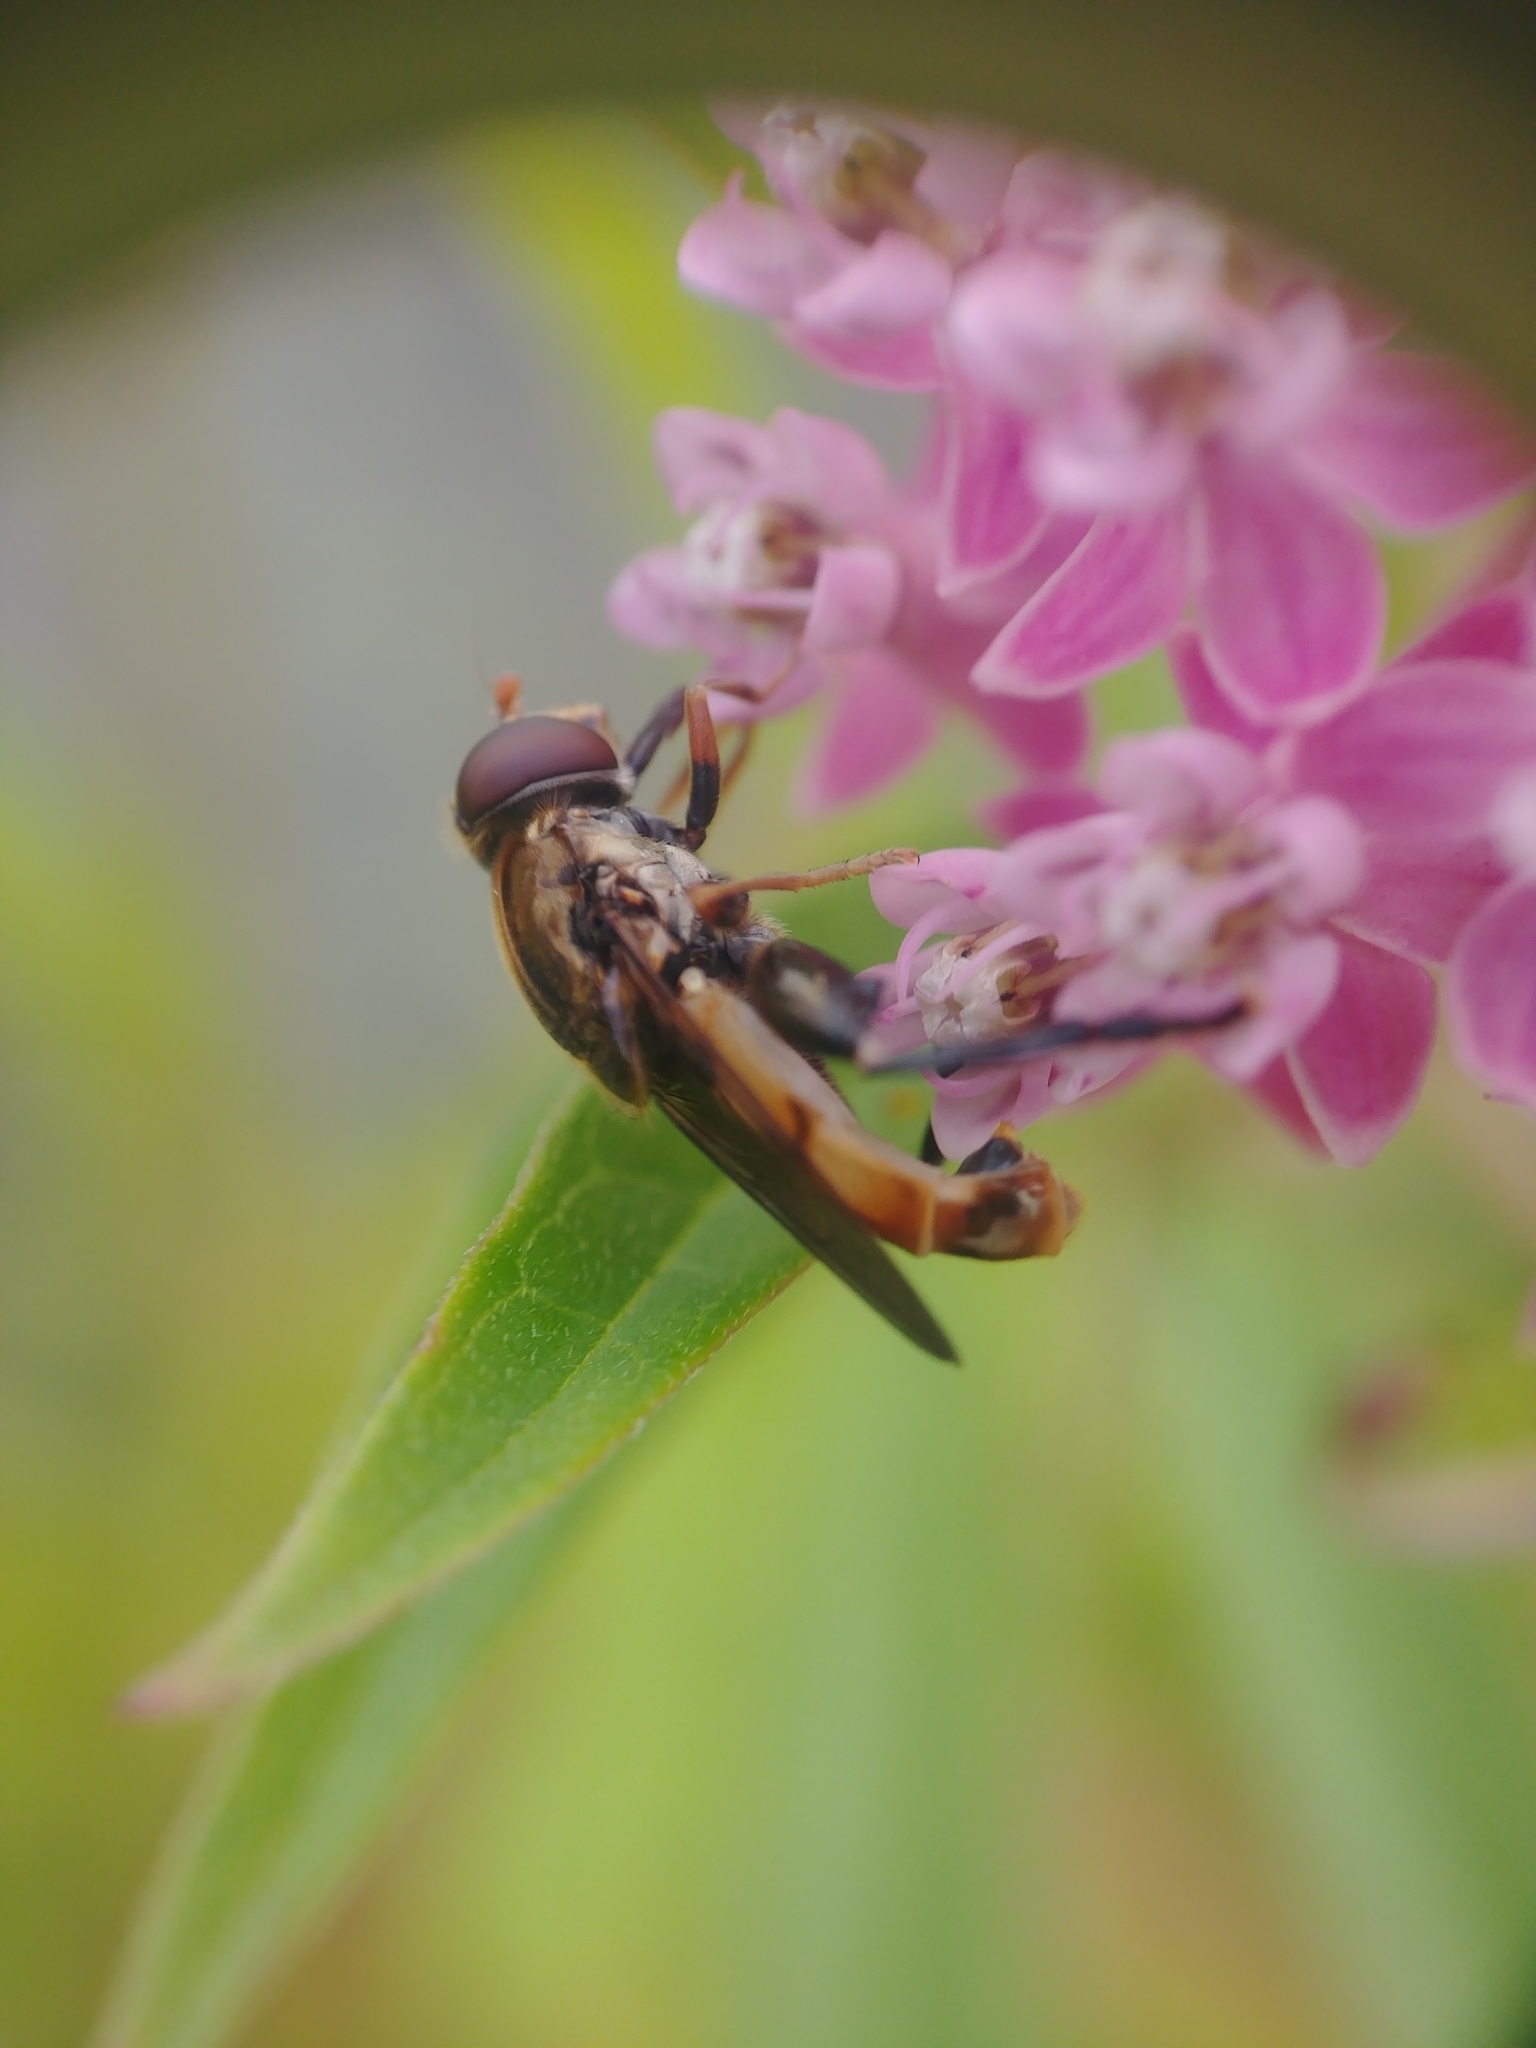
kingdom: Animalia
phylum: Arthropoda
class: Insecta
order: Diptera
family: Syrphidae
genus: Tropidia
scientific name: Tropidia quadrata
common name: Common thick-legged fly
